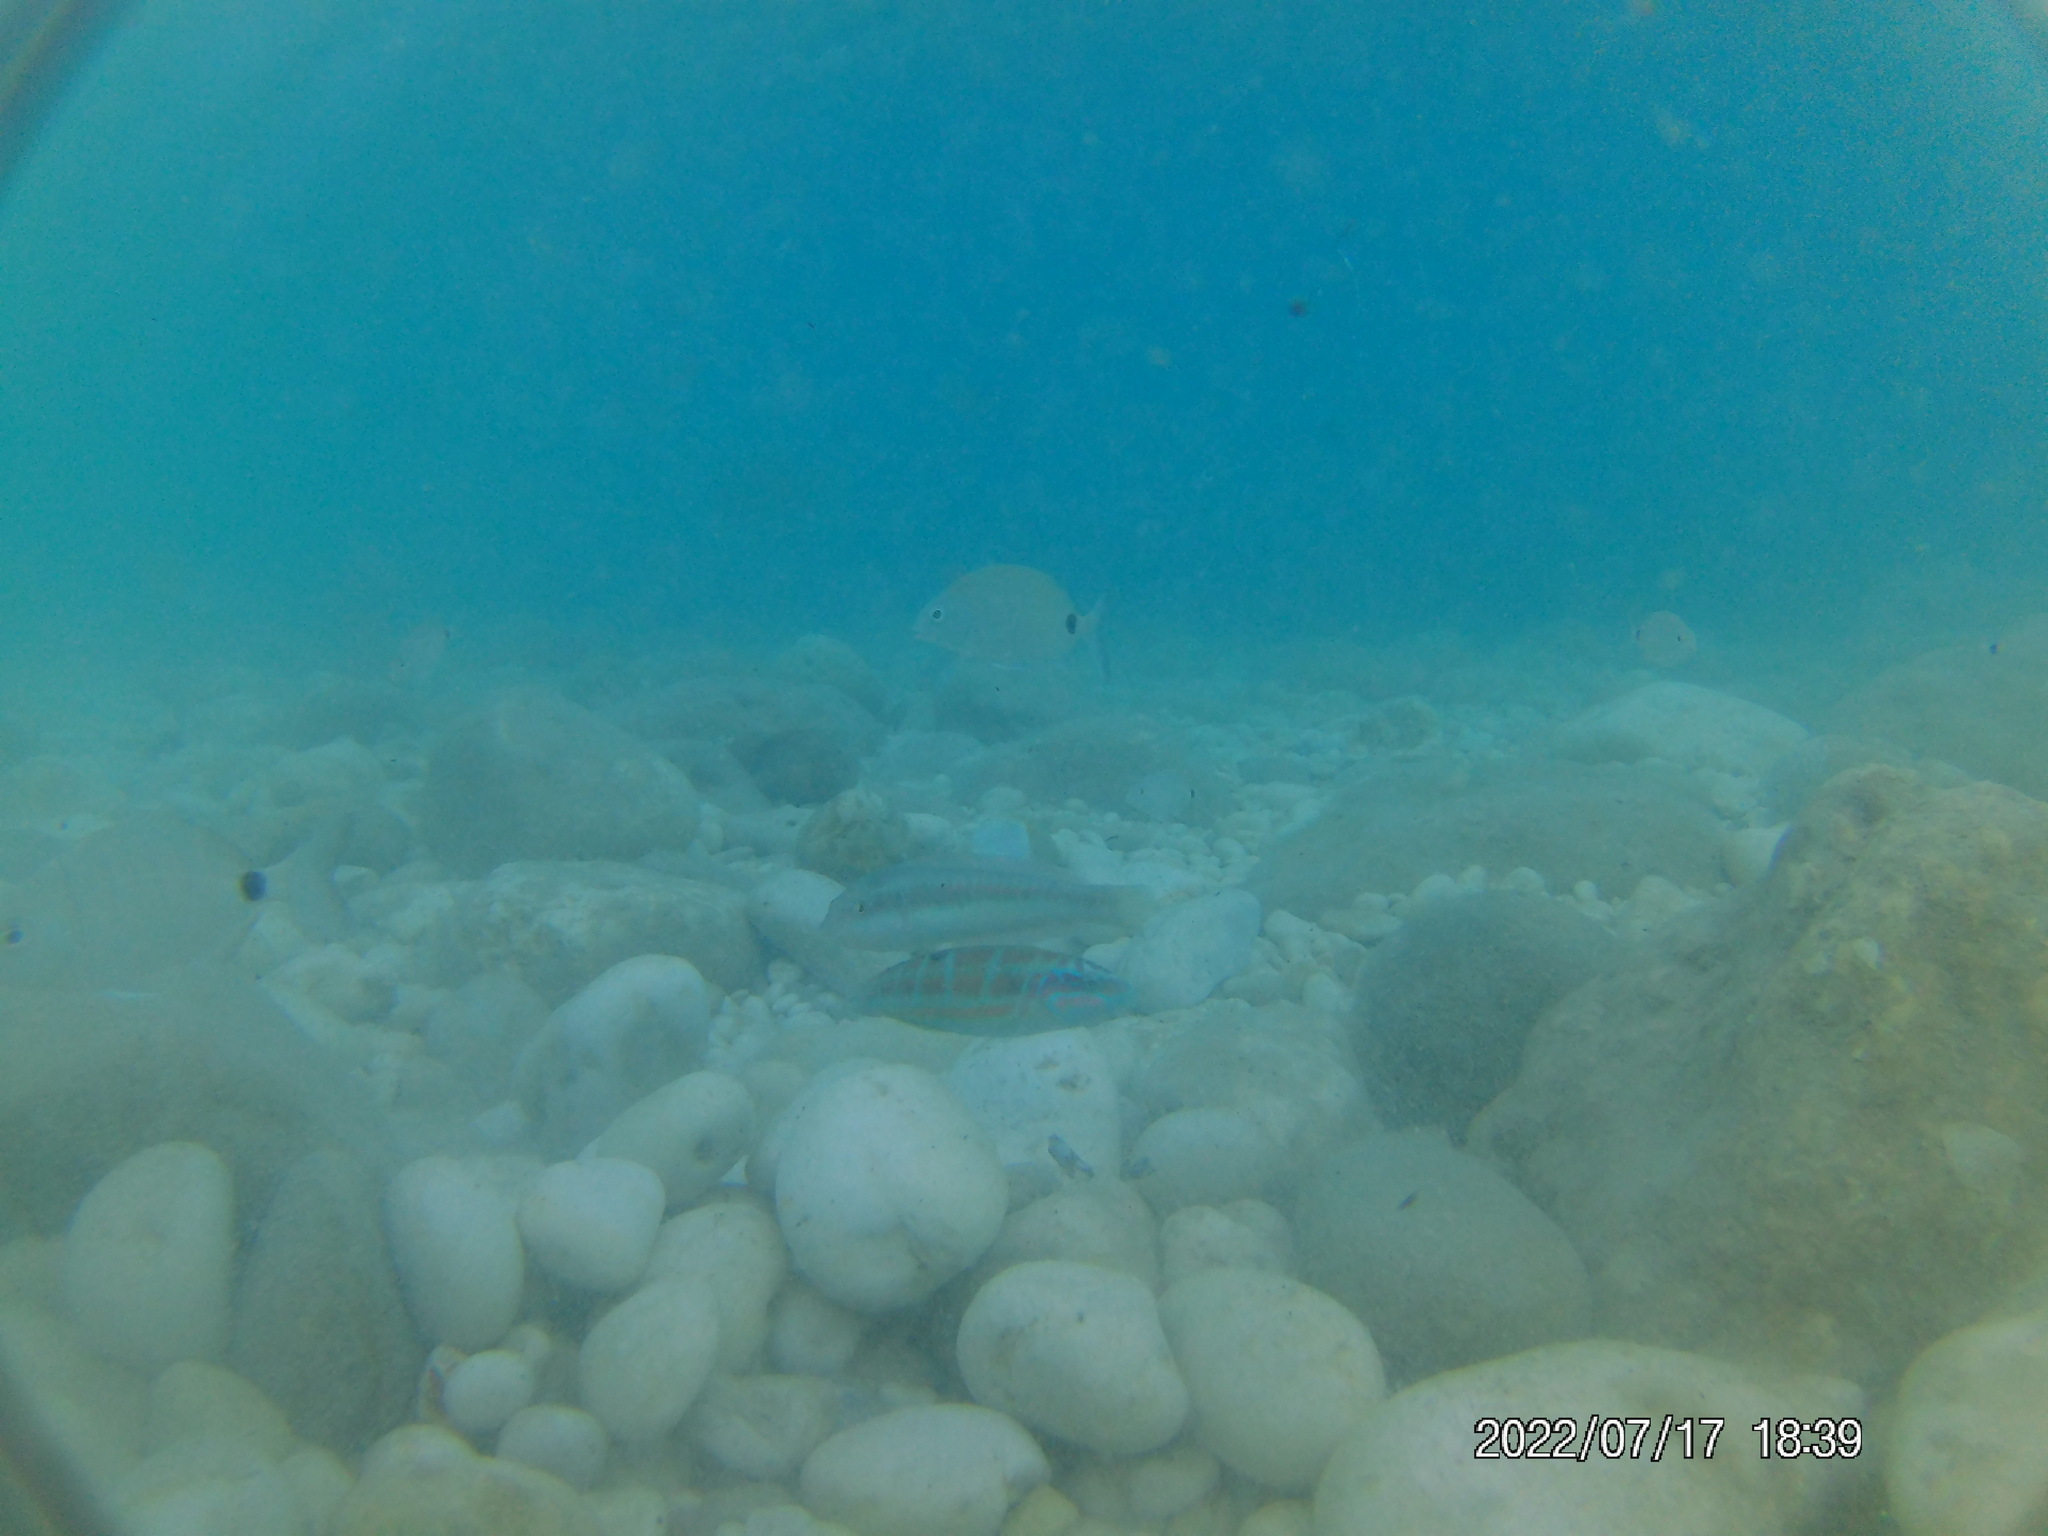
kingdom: Animalia
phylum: Chordata
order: Perciformes
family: Labridae
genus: Coris
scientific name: Coris julis
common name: Rainbow wrasse
